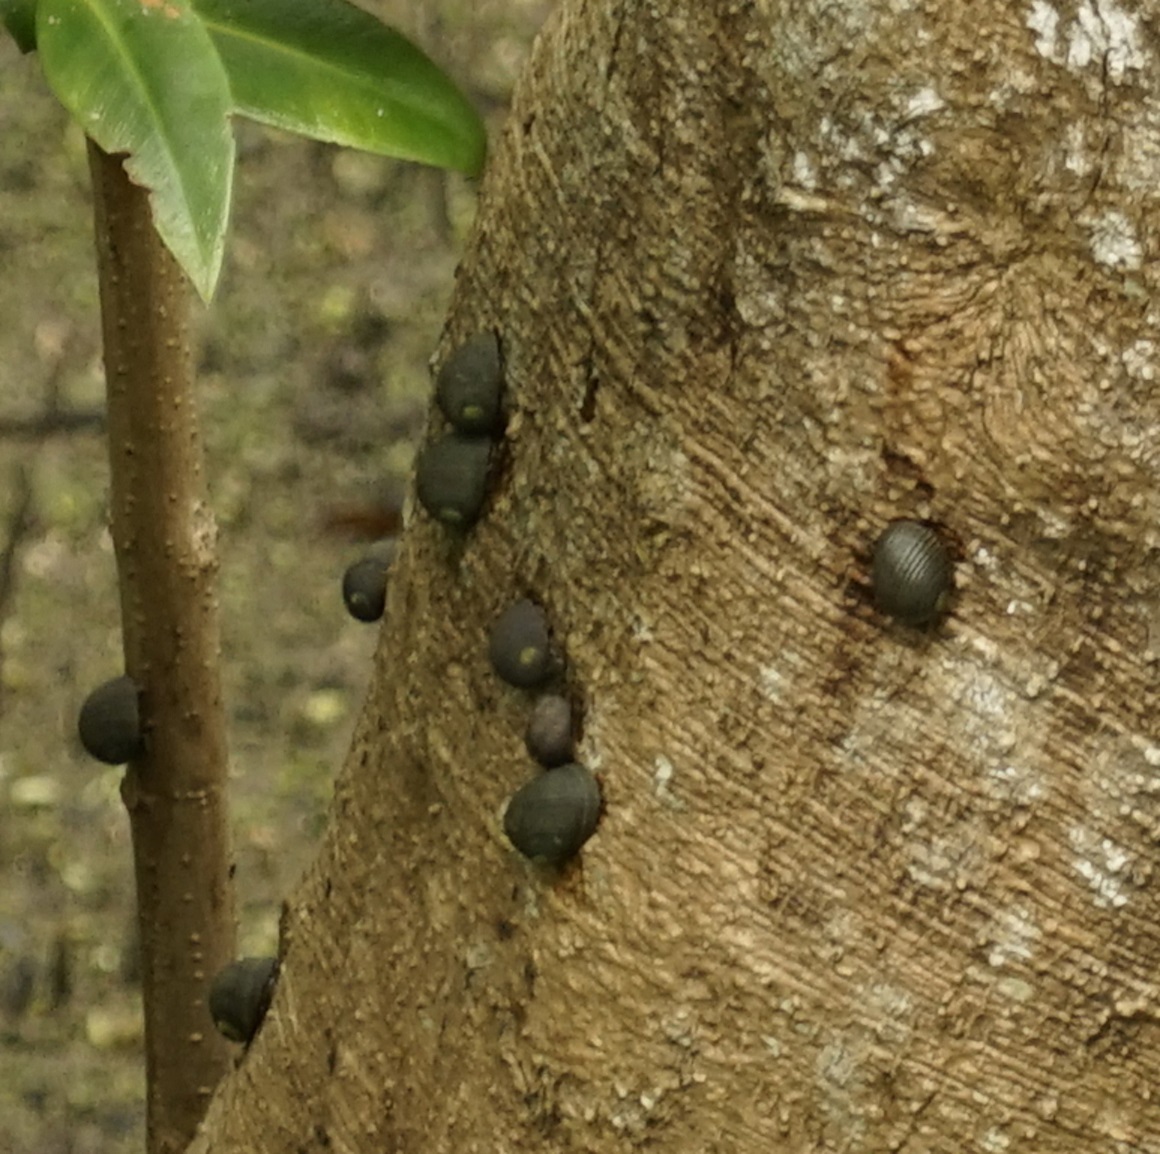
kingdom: Animalia
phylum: Mollusca
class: Gastropoda
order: Cycloneritida
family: Neritidae
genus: Nerita
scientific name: Nerita balteata
